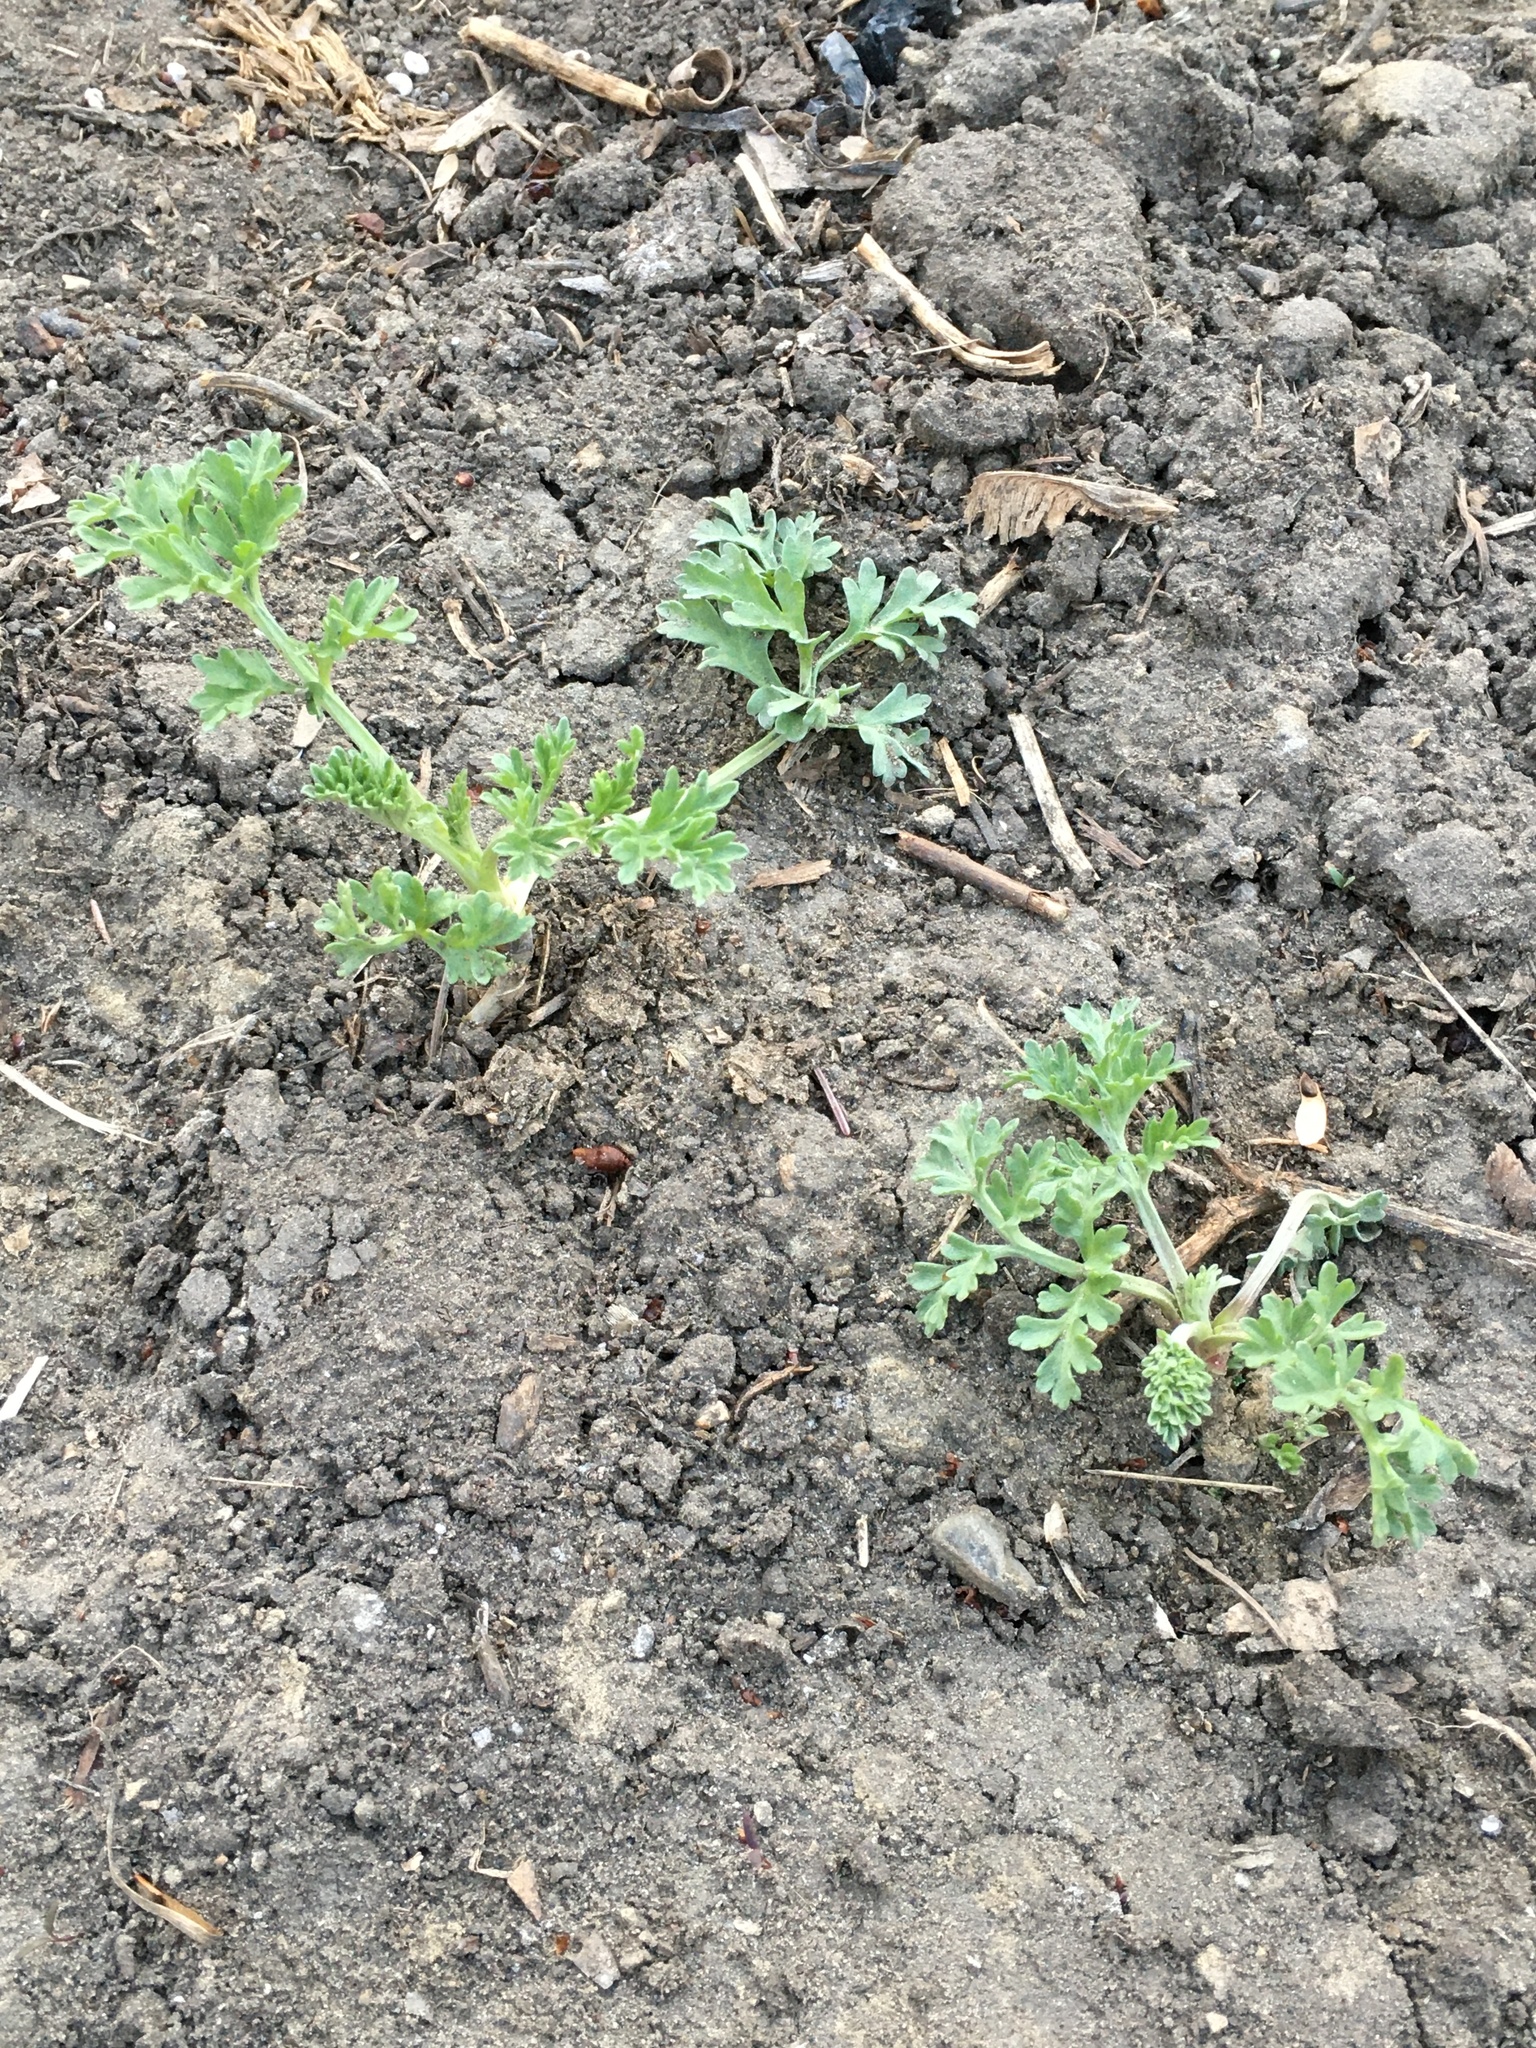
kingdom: Plantae
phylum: Tracheophyta
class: Magnoliopsida
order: Asterales
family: Asteraceae
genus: Artemisia
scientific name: Artemisia absinthium
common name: Wormwood
